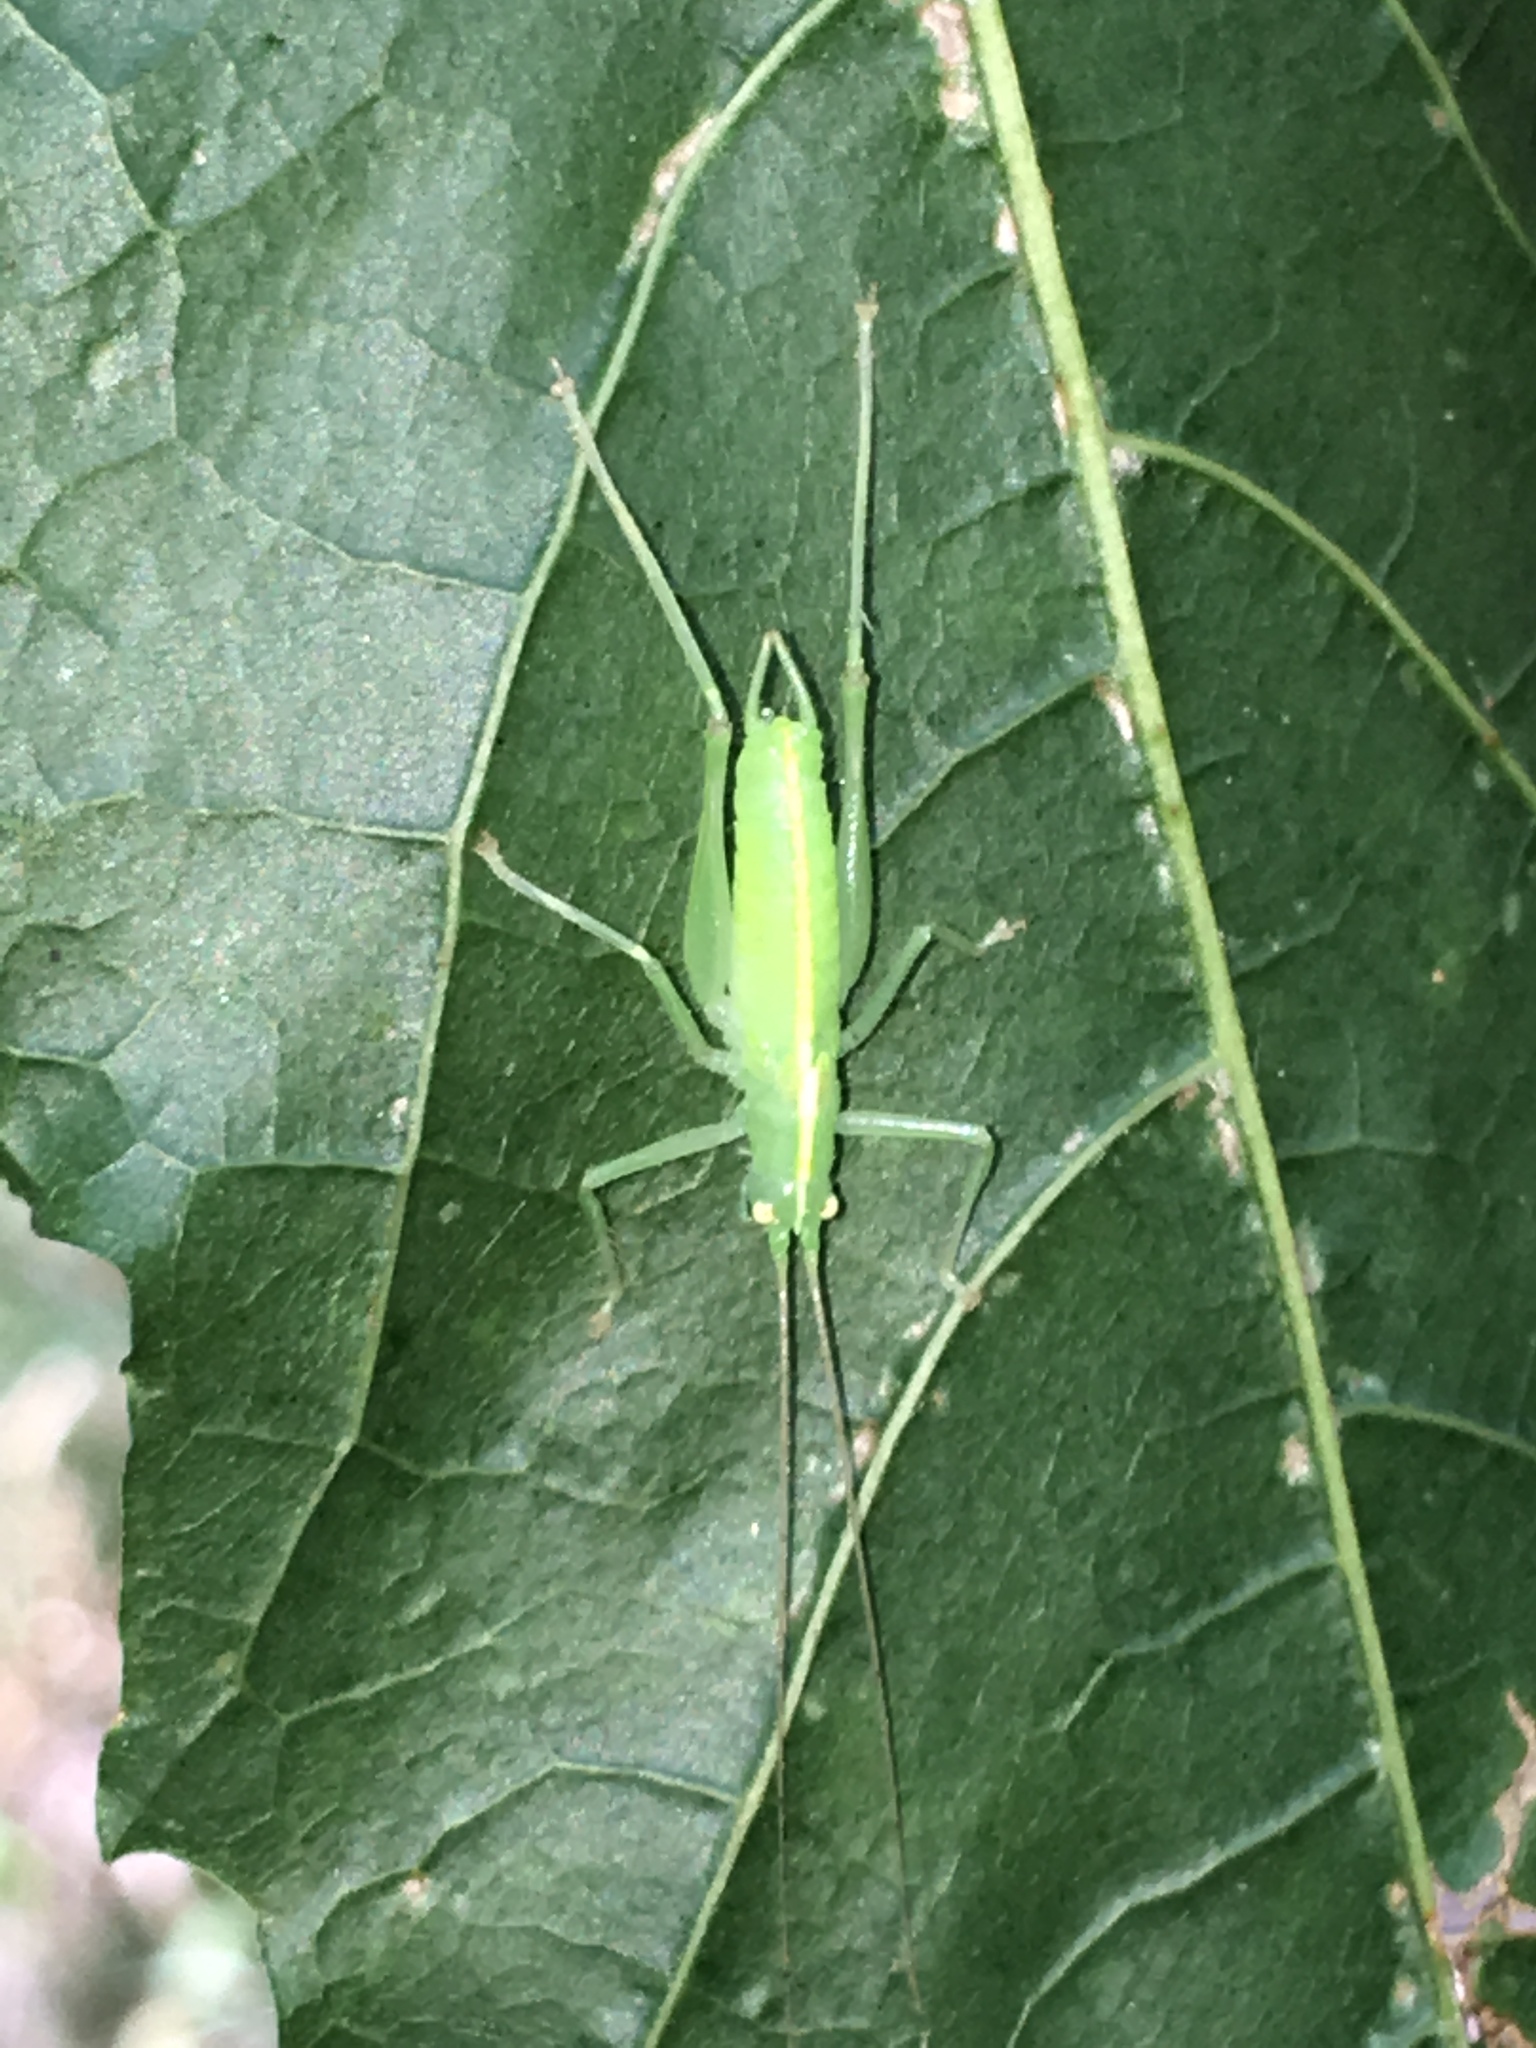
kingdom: Animalia
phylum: Arthropoda
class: Insecta
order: Orthoptera
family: Tettigoniidae
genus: Meconema
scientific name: Meconema meridionale
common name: Southern oak bush-cricket
